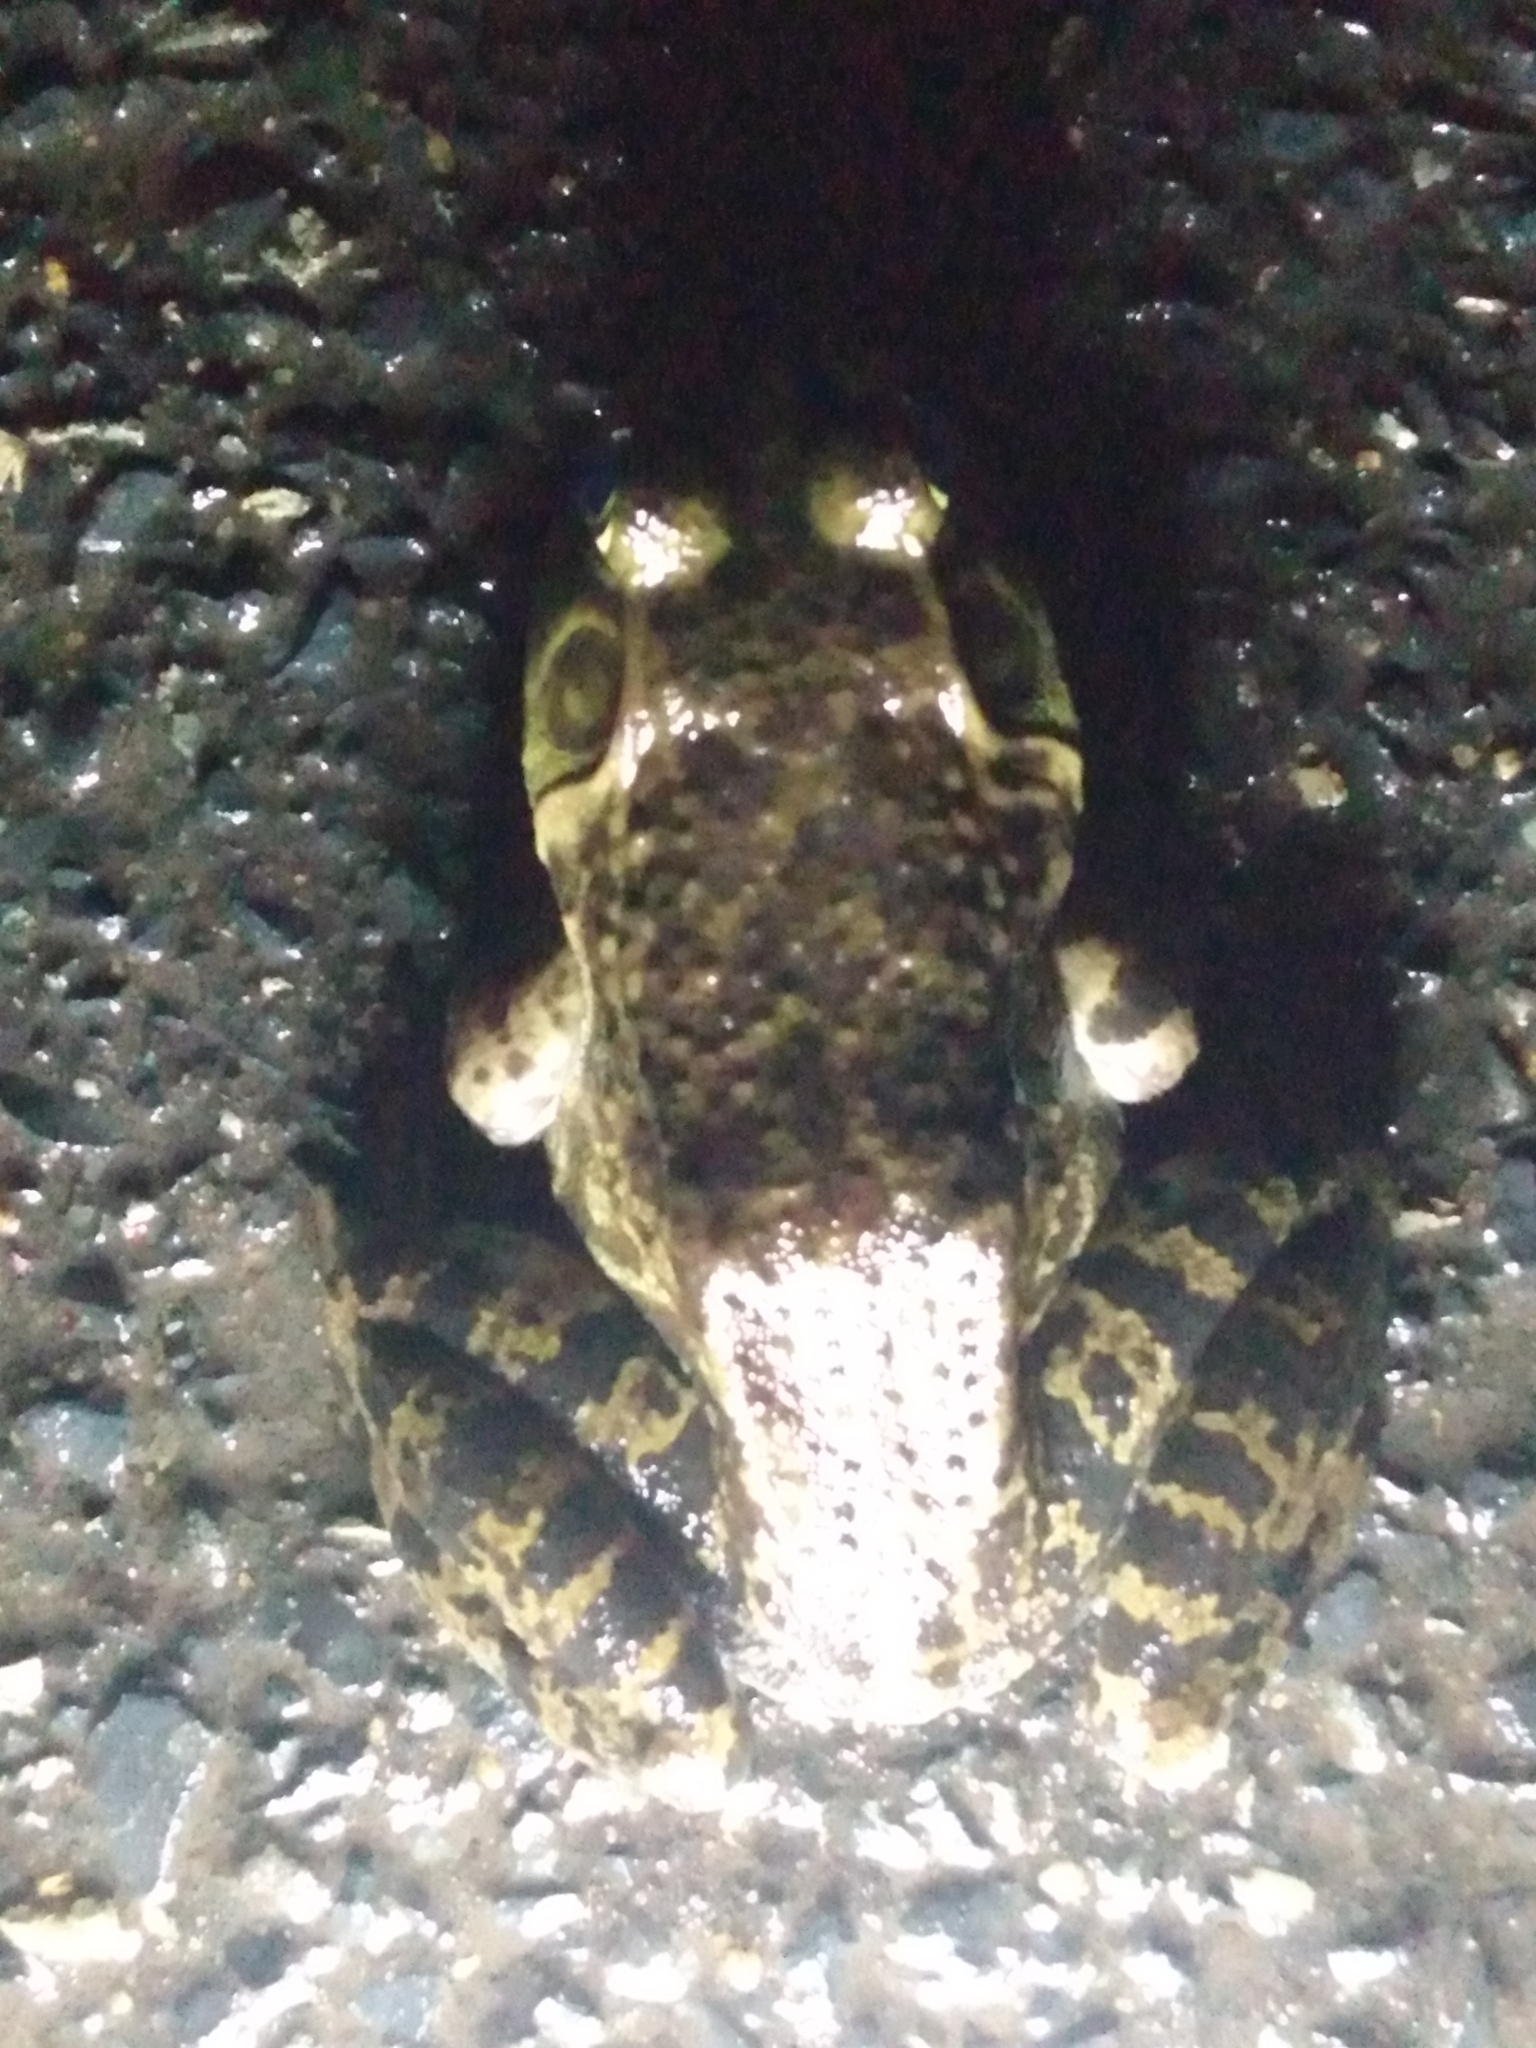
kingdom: Animalia
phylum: Chordata
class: Amphibia
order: Anura
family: Ranidae
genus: Lithobates
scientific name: Lithobates catesbeianus
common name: American bullfrog
